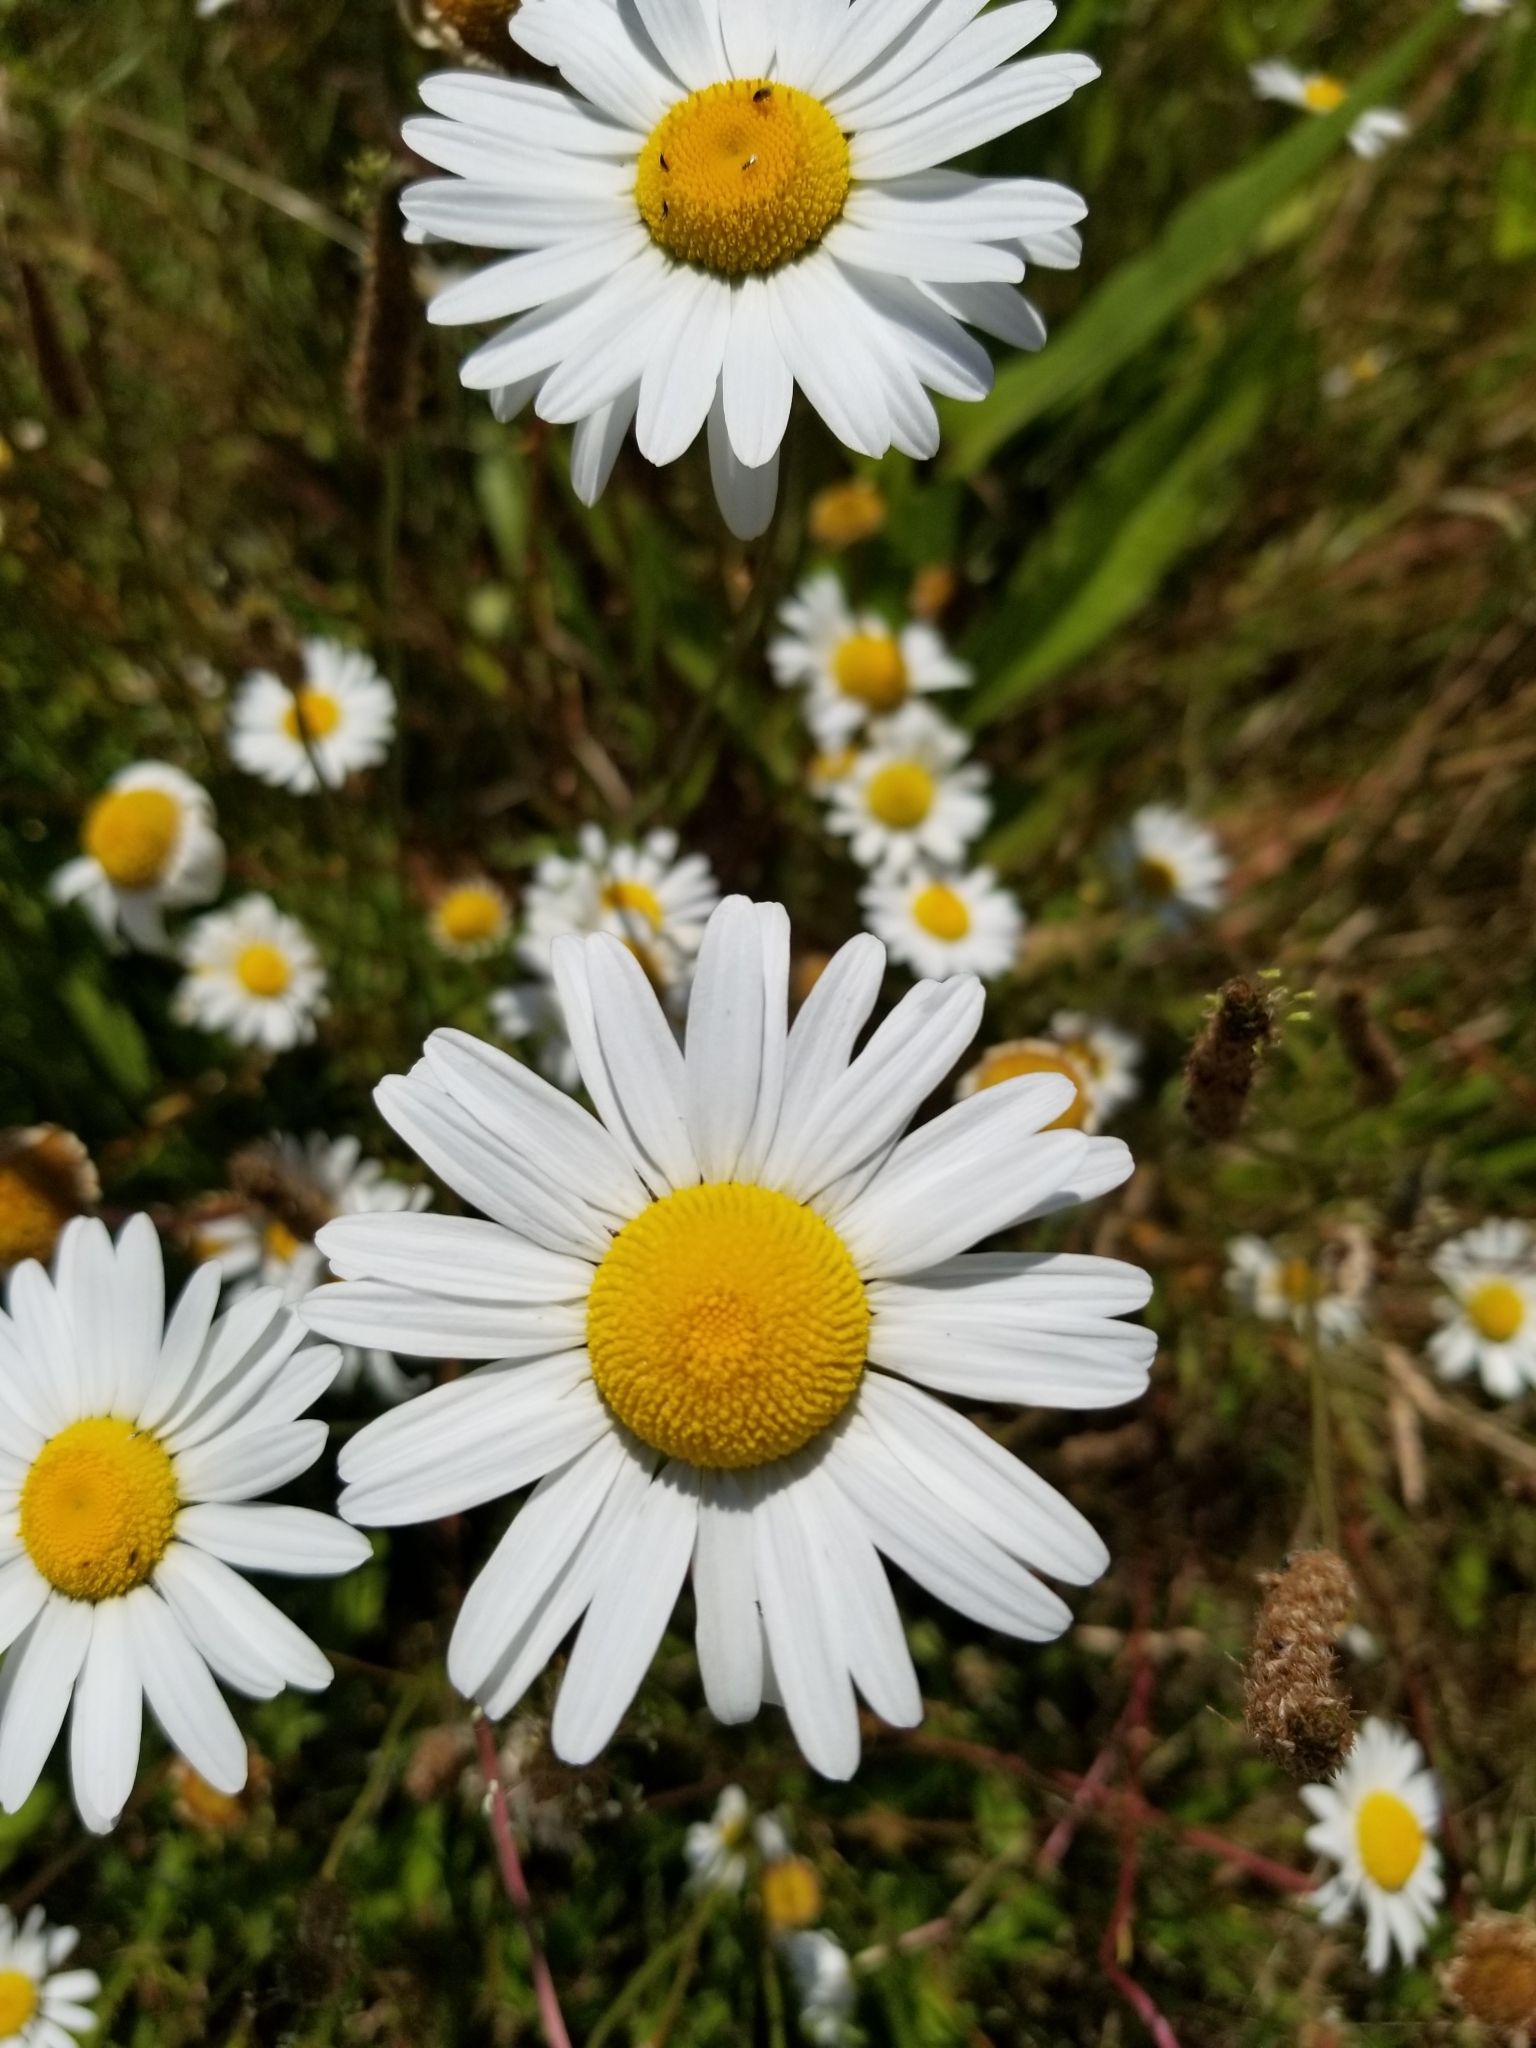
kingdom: Plantae
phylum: Tracheophyta
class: Magnoliopsida
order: Asterales
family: Asteraceae
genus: Leucanthemum
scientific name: Leucanthemum vulgare
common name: Oxeye daisy
